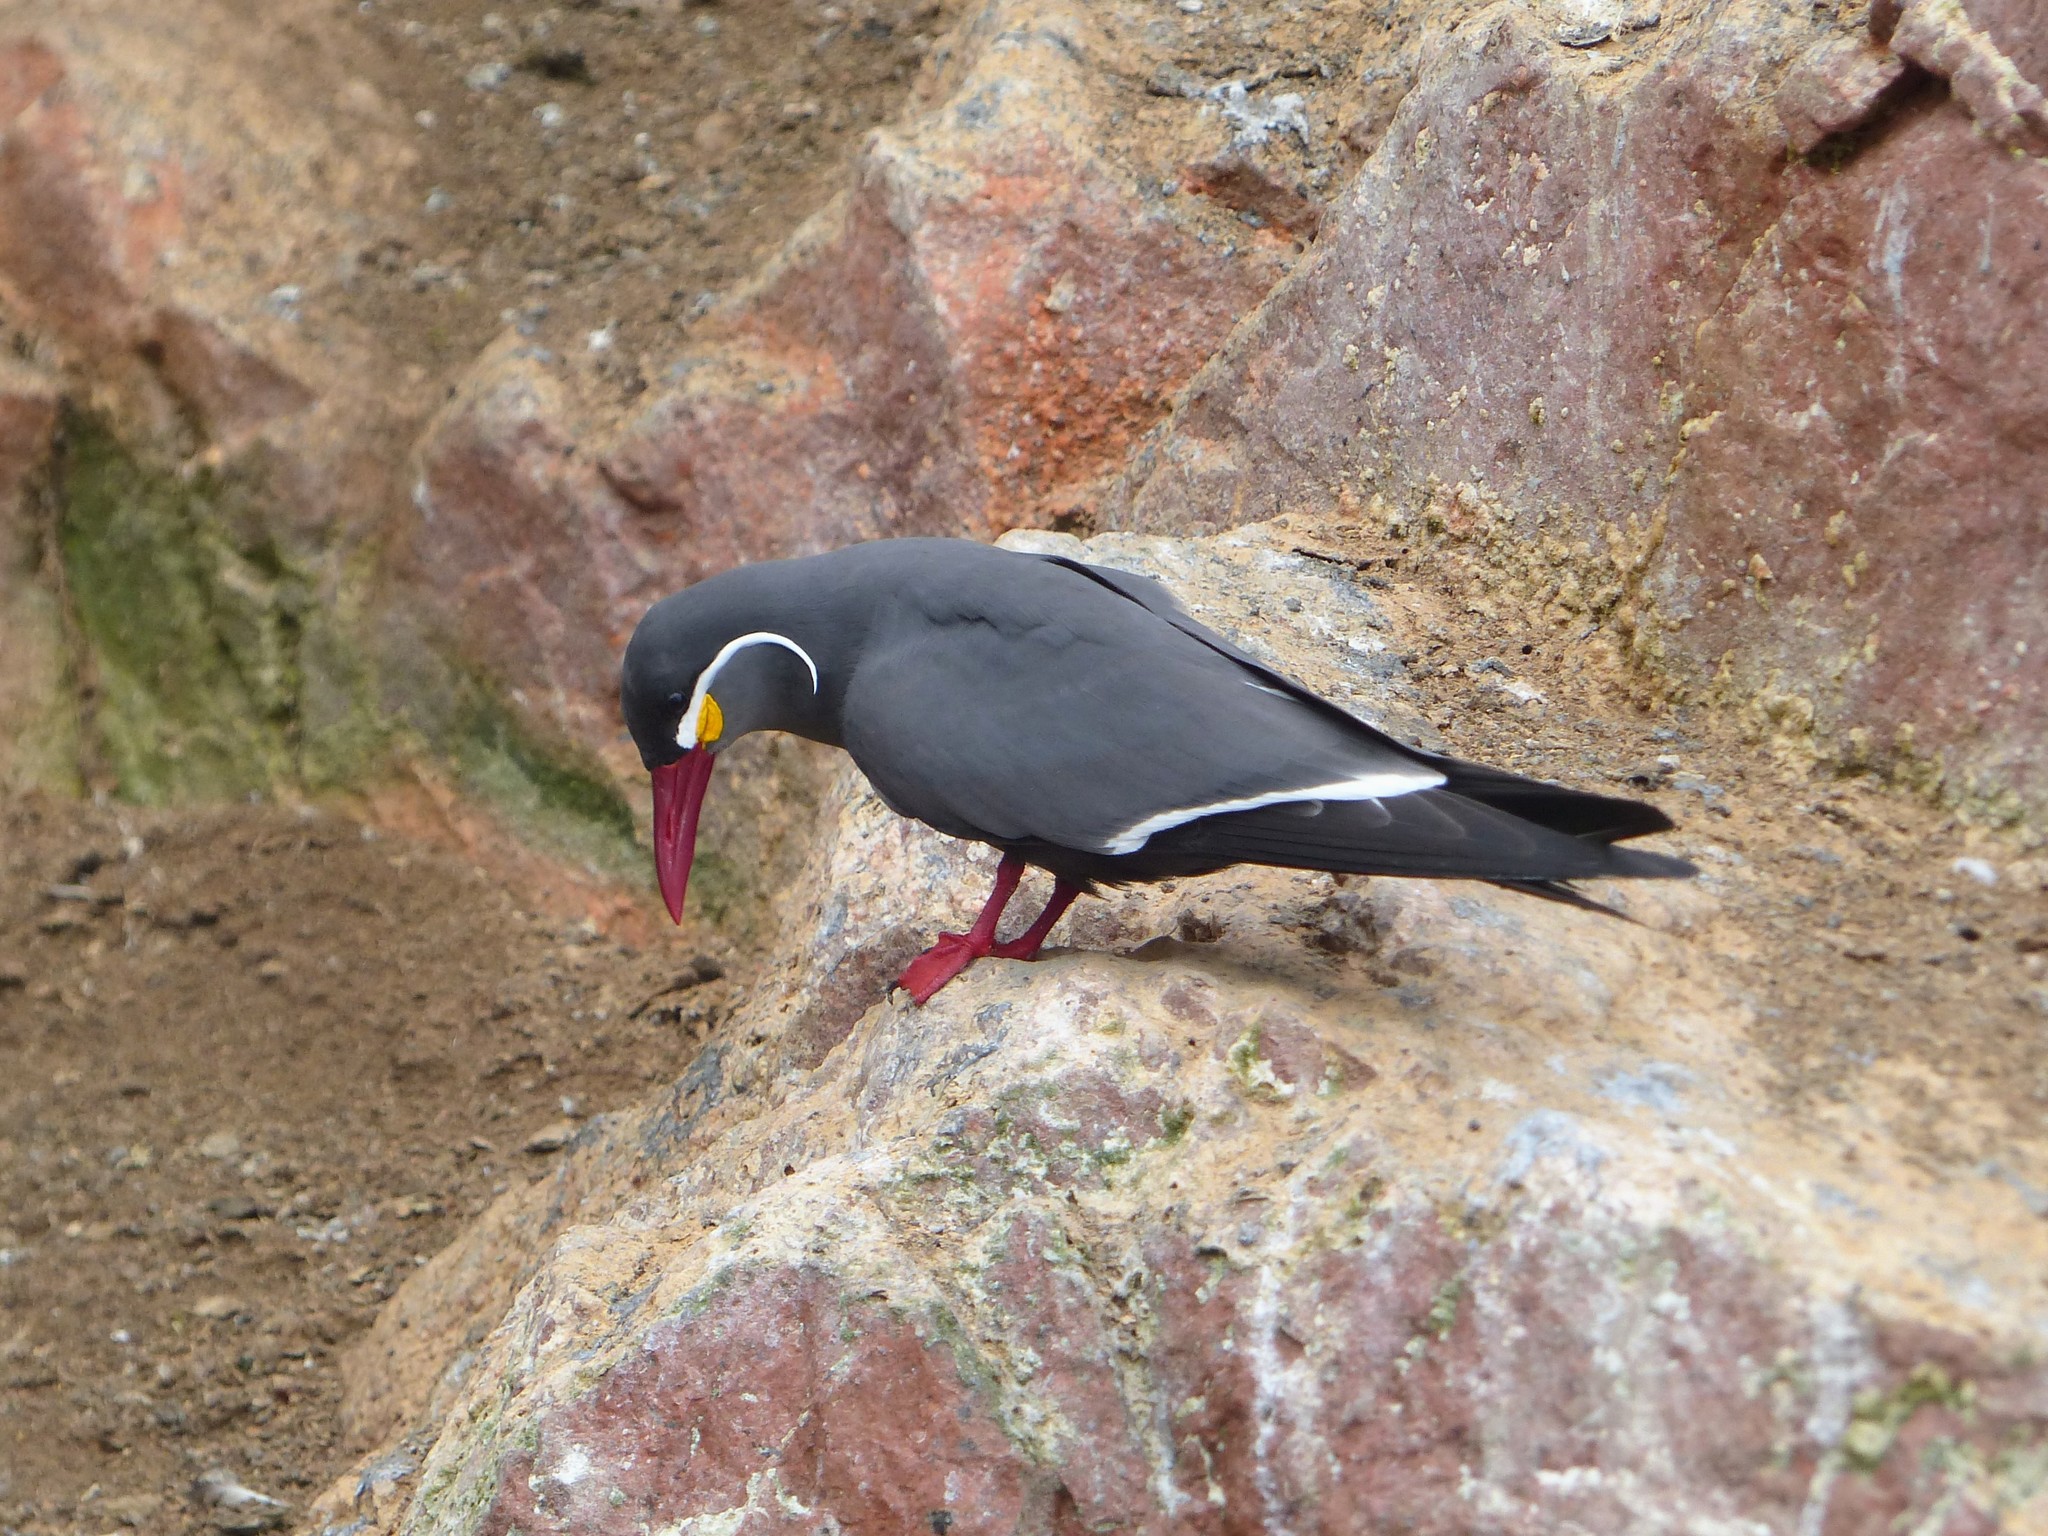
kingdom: Animalia
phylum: Chordata
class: Aves
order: Charadriiformes
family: Laridae
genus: Larosterna
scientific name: Larosterna inca
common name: Inca tern
